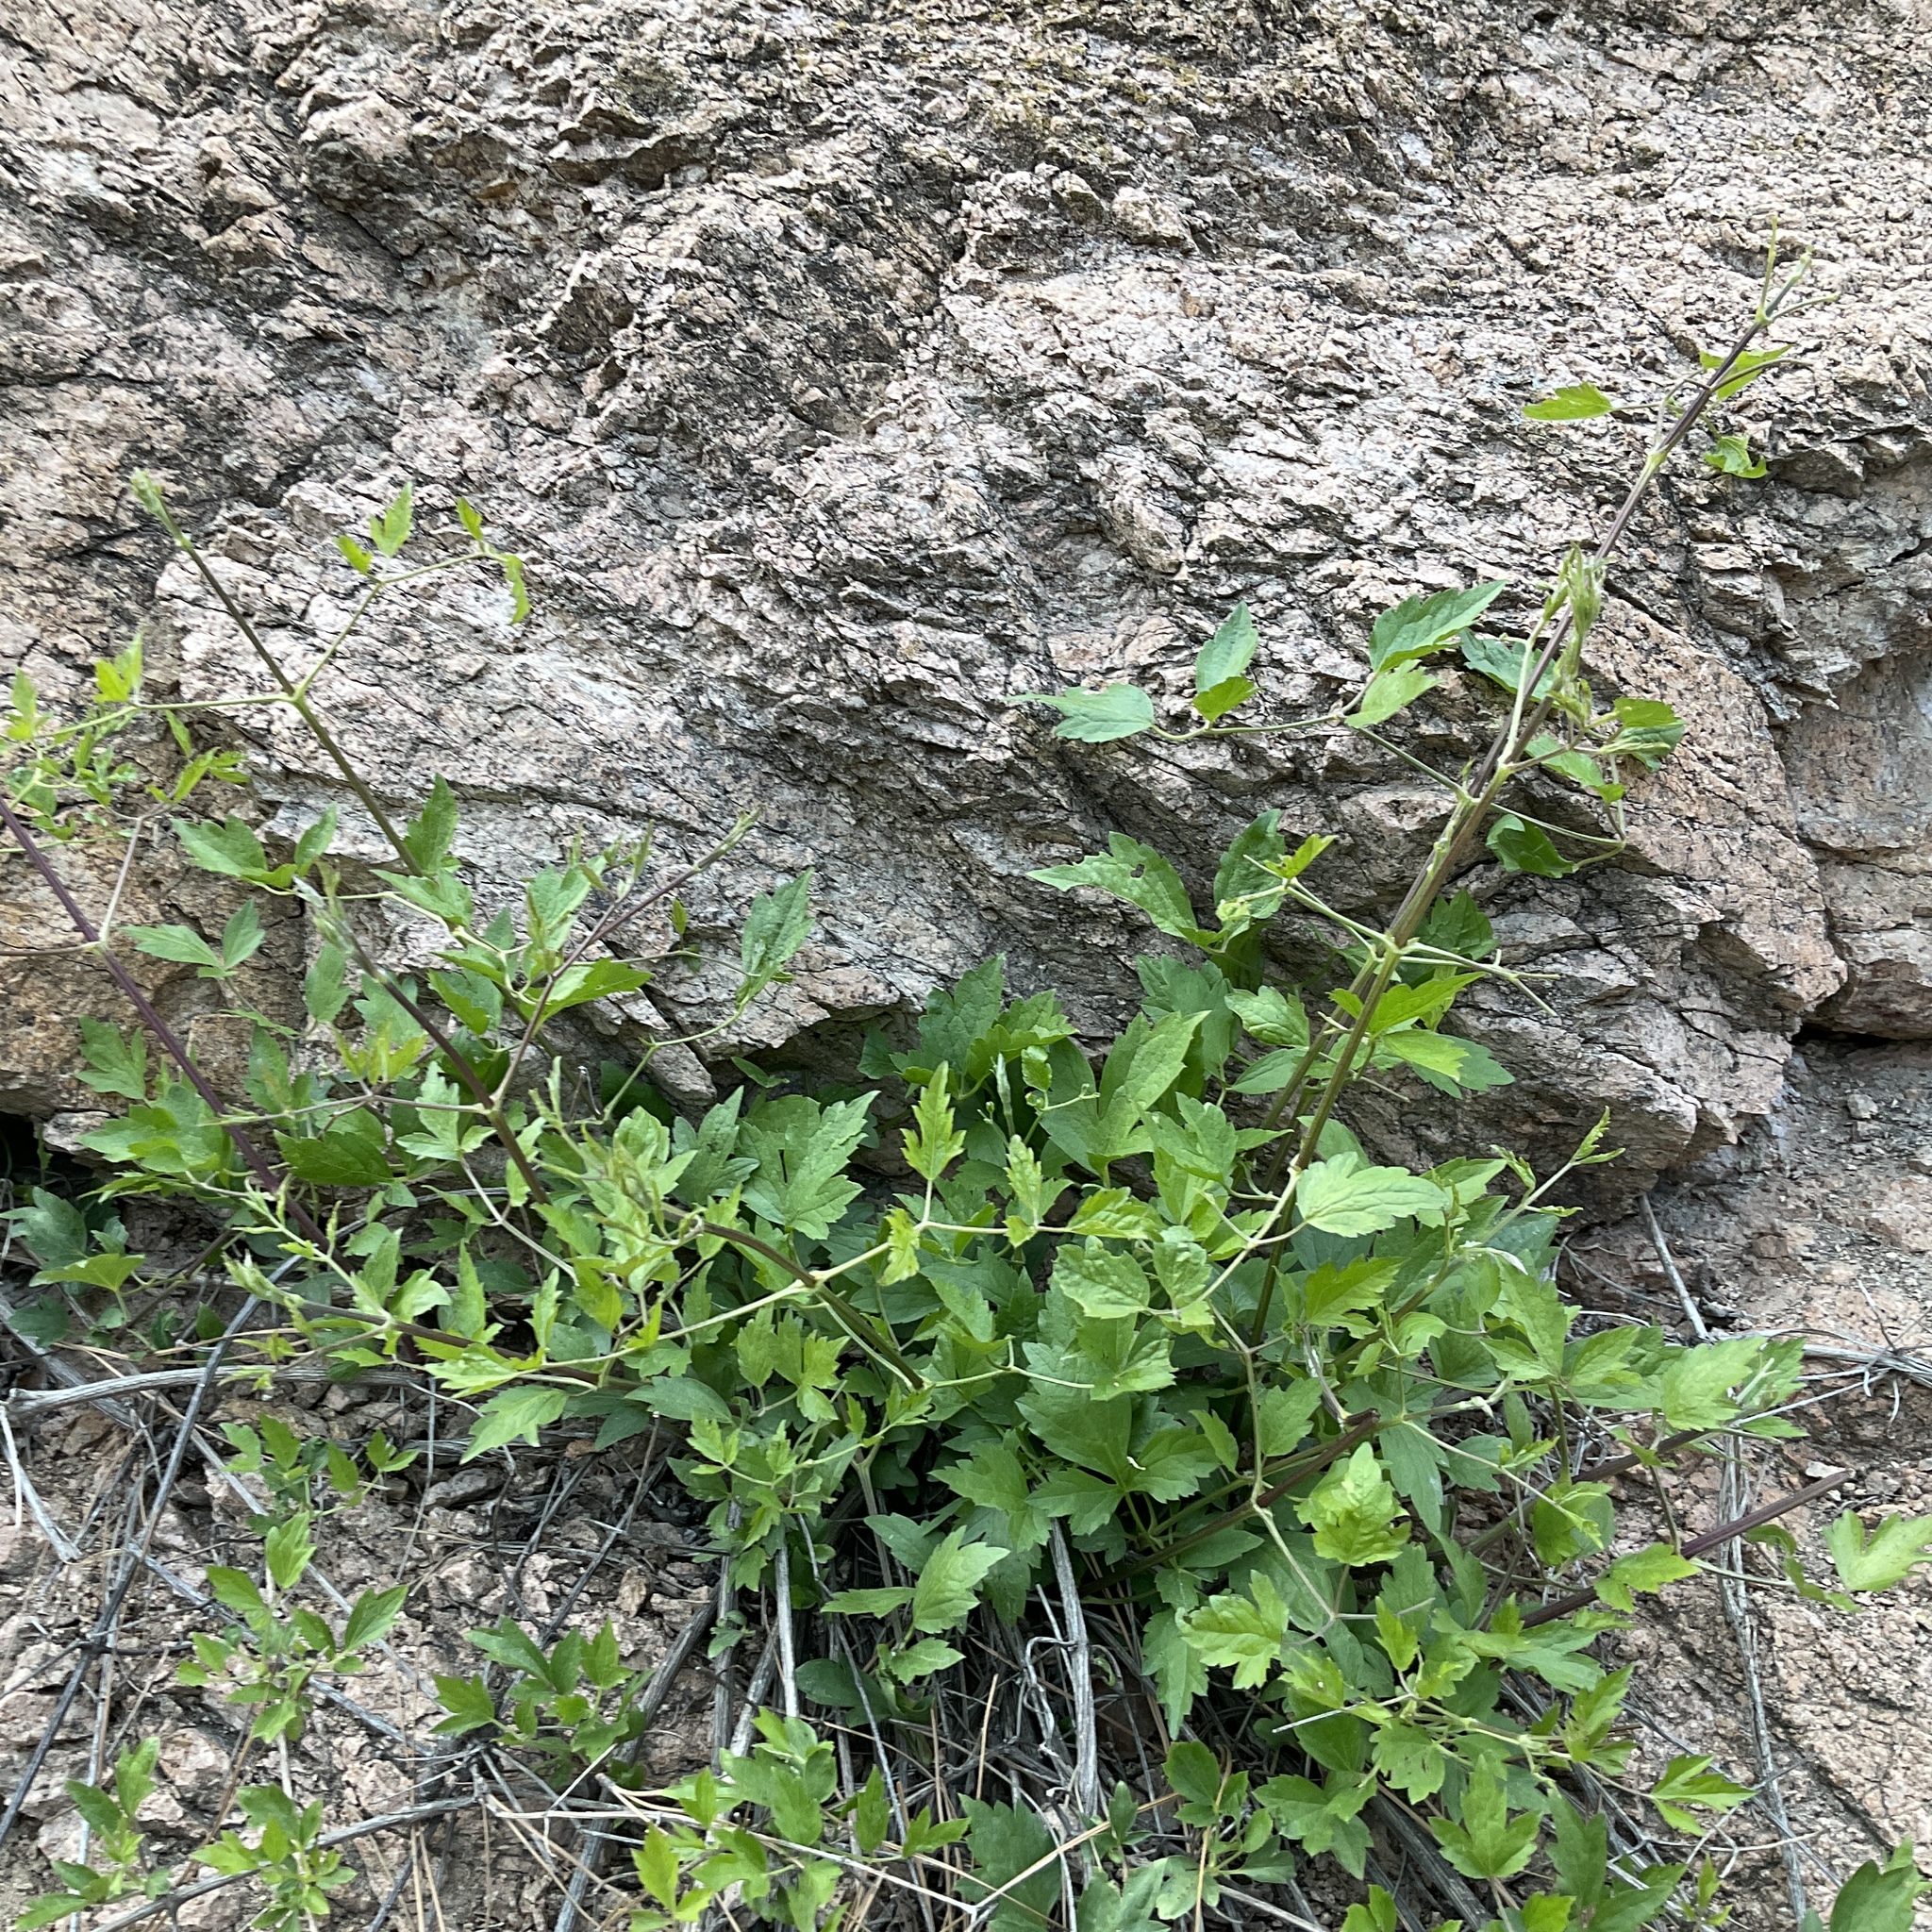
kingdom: Plantae
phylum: Tracheophyta
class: Magnoliopsida
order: Ranunculales
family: Ranunculaceae
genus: Clematis
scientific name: Clematis ligusticifolia
